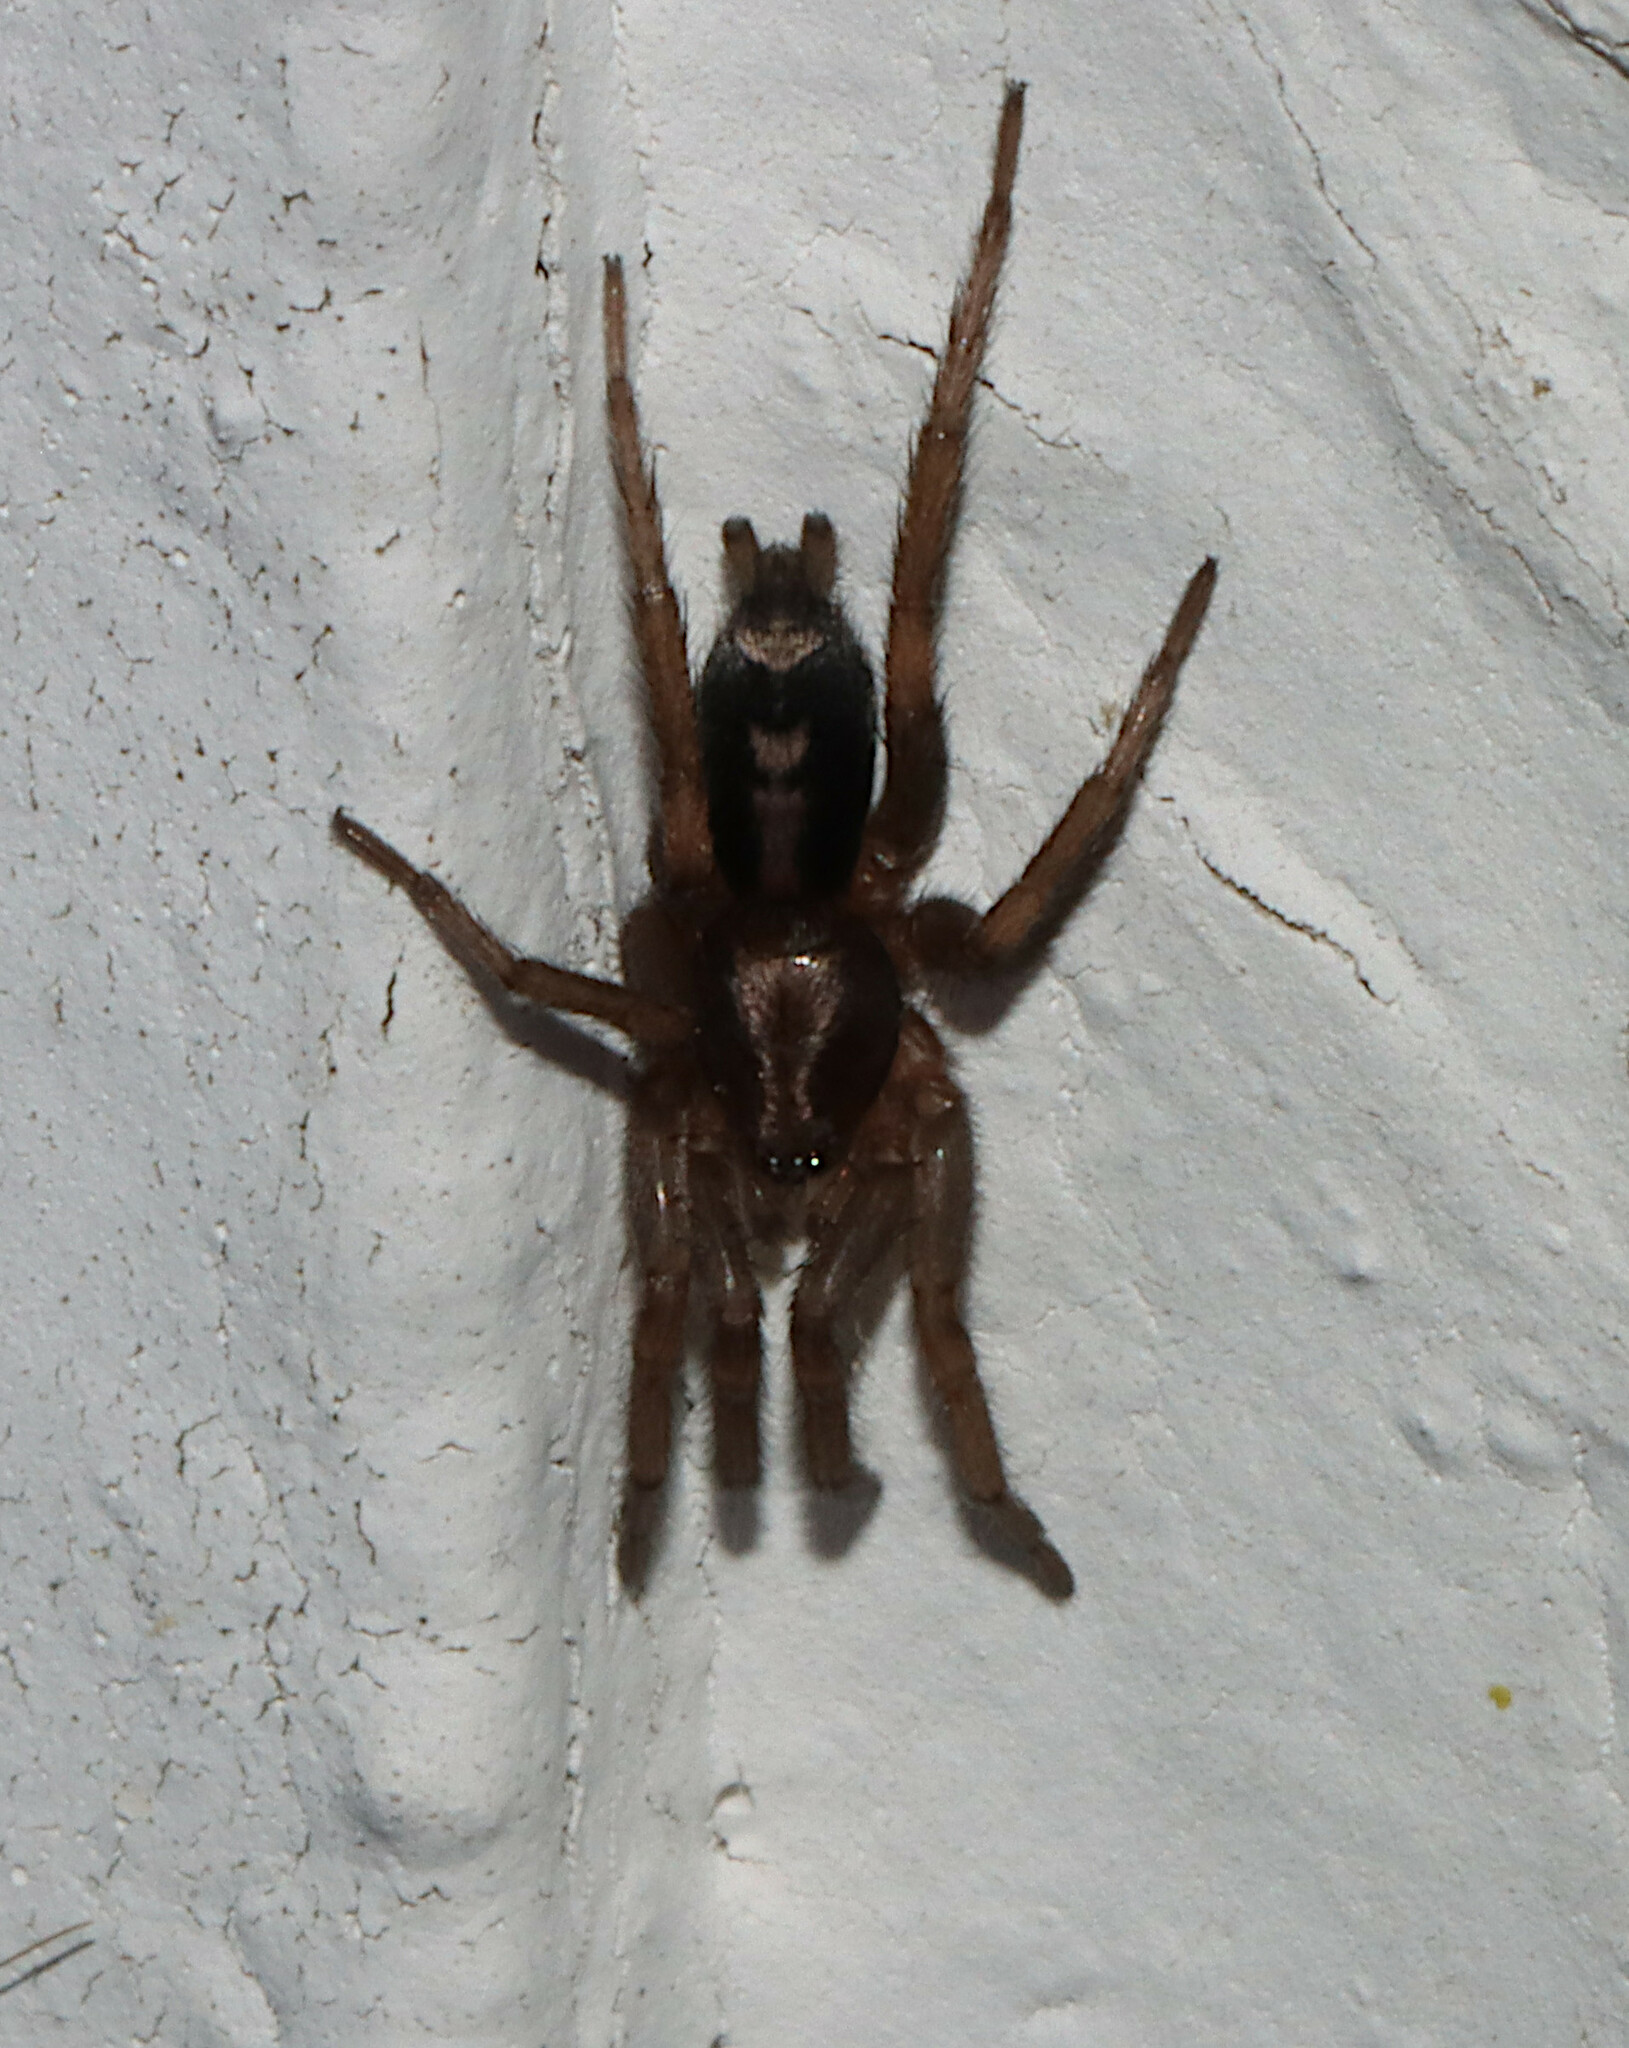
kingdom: Animalia
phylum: Arthropoda
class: Arachnida
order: Araneae
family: Gnaphosidae
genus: Herpyllus
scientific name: Herpyllus ecclesiasticus
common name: Eastern parson spider
